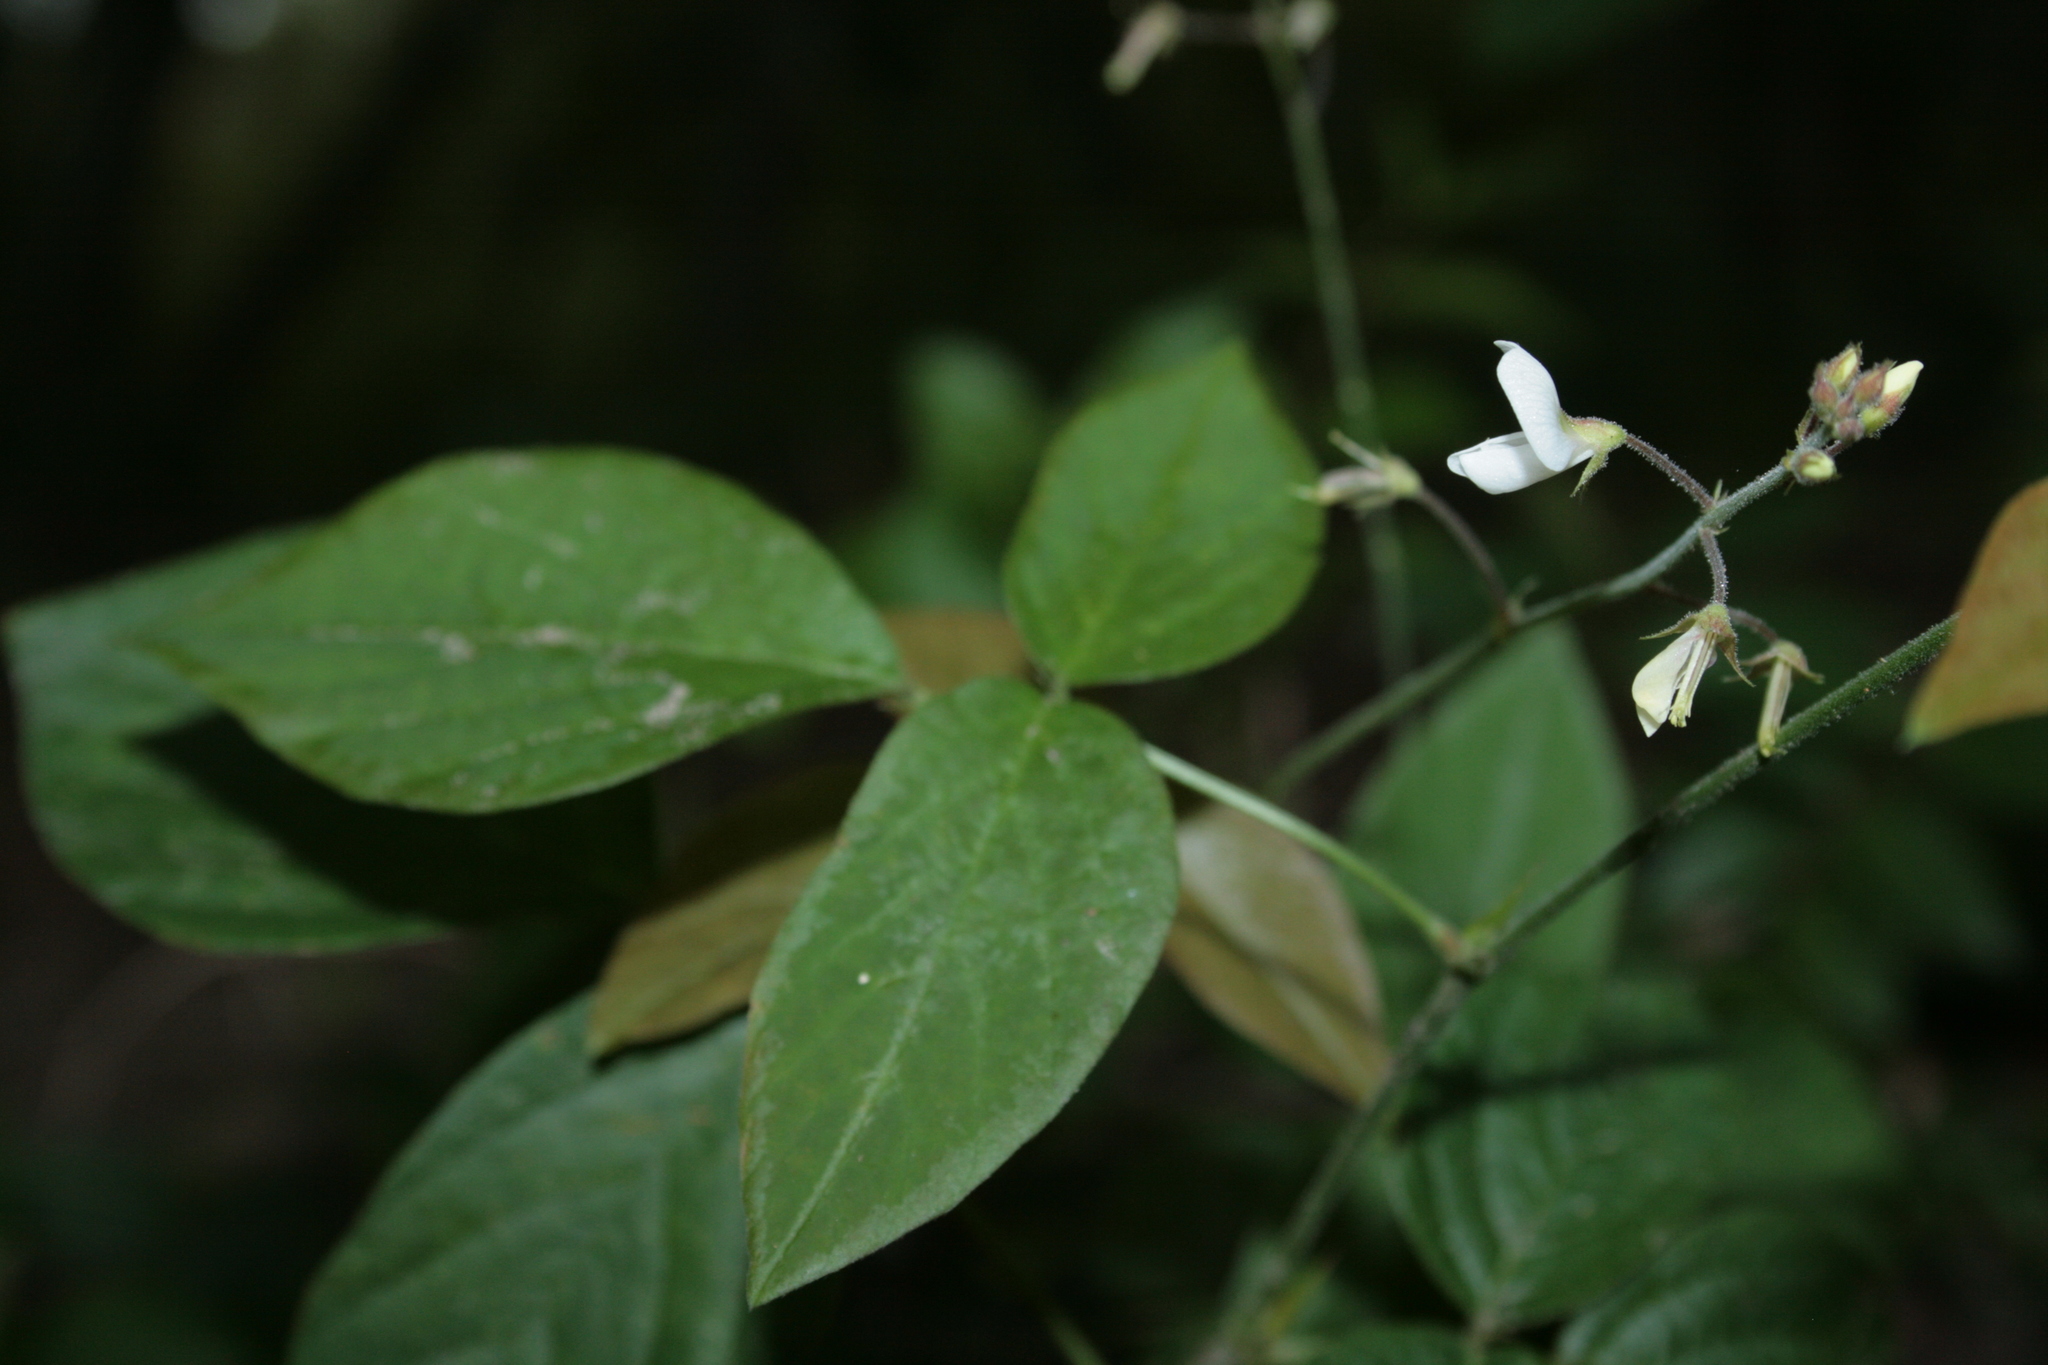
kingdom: Plantae
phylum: Tracheophyta
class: Magnoliopsida
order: Fabales
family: Fabaceae
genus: Desmodium
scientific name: Desmodium affine
